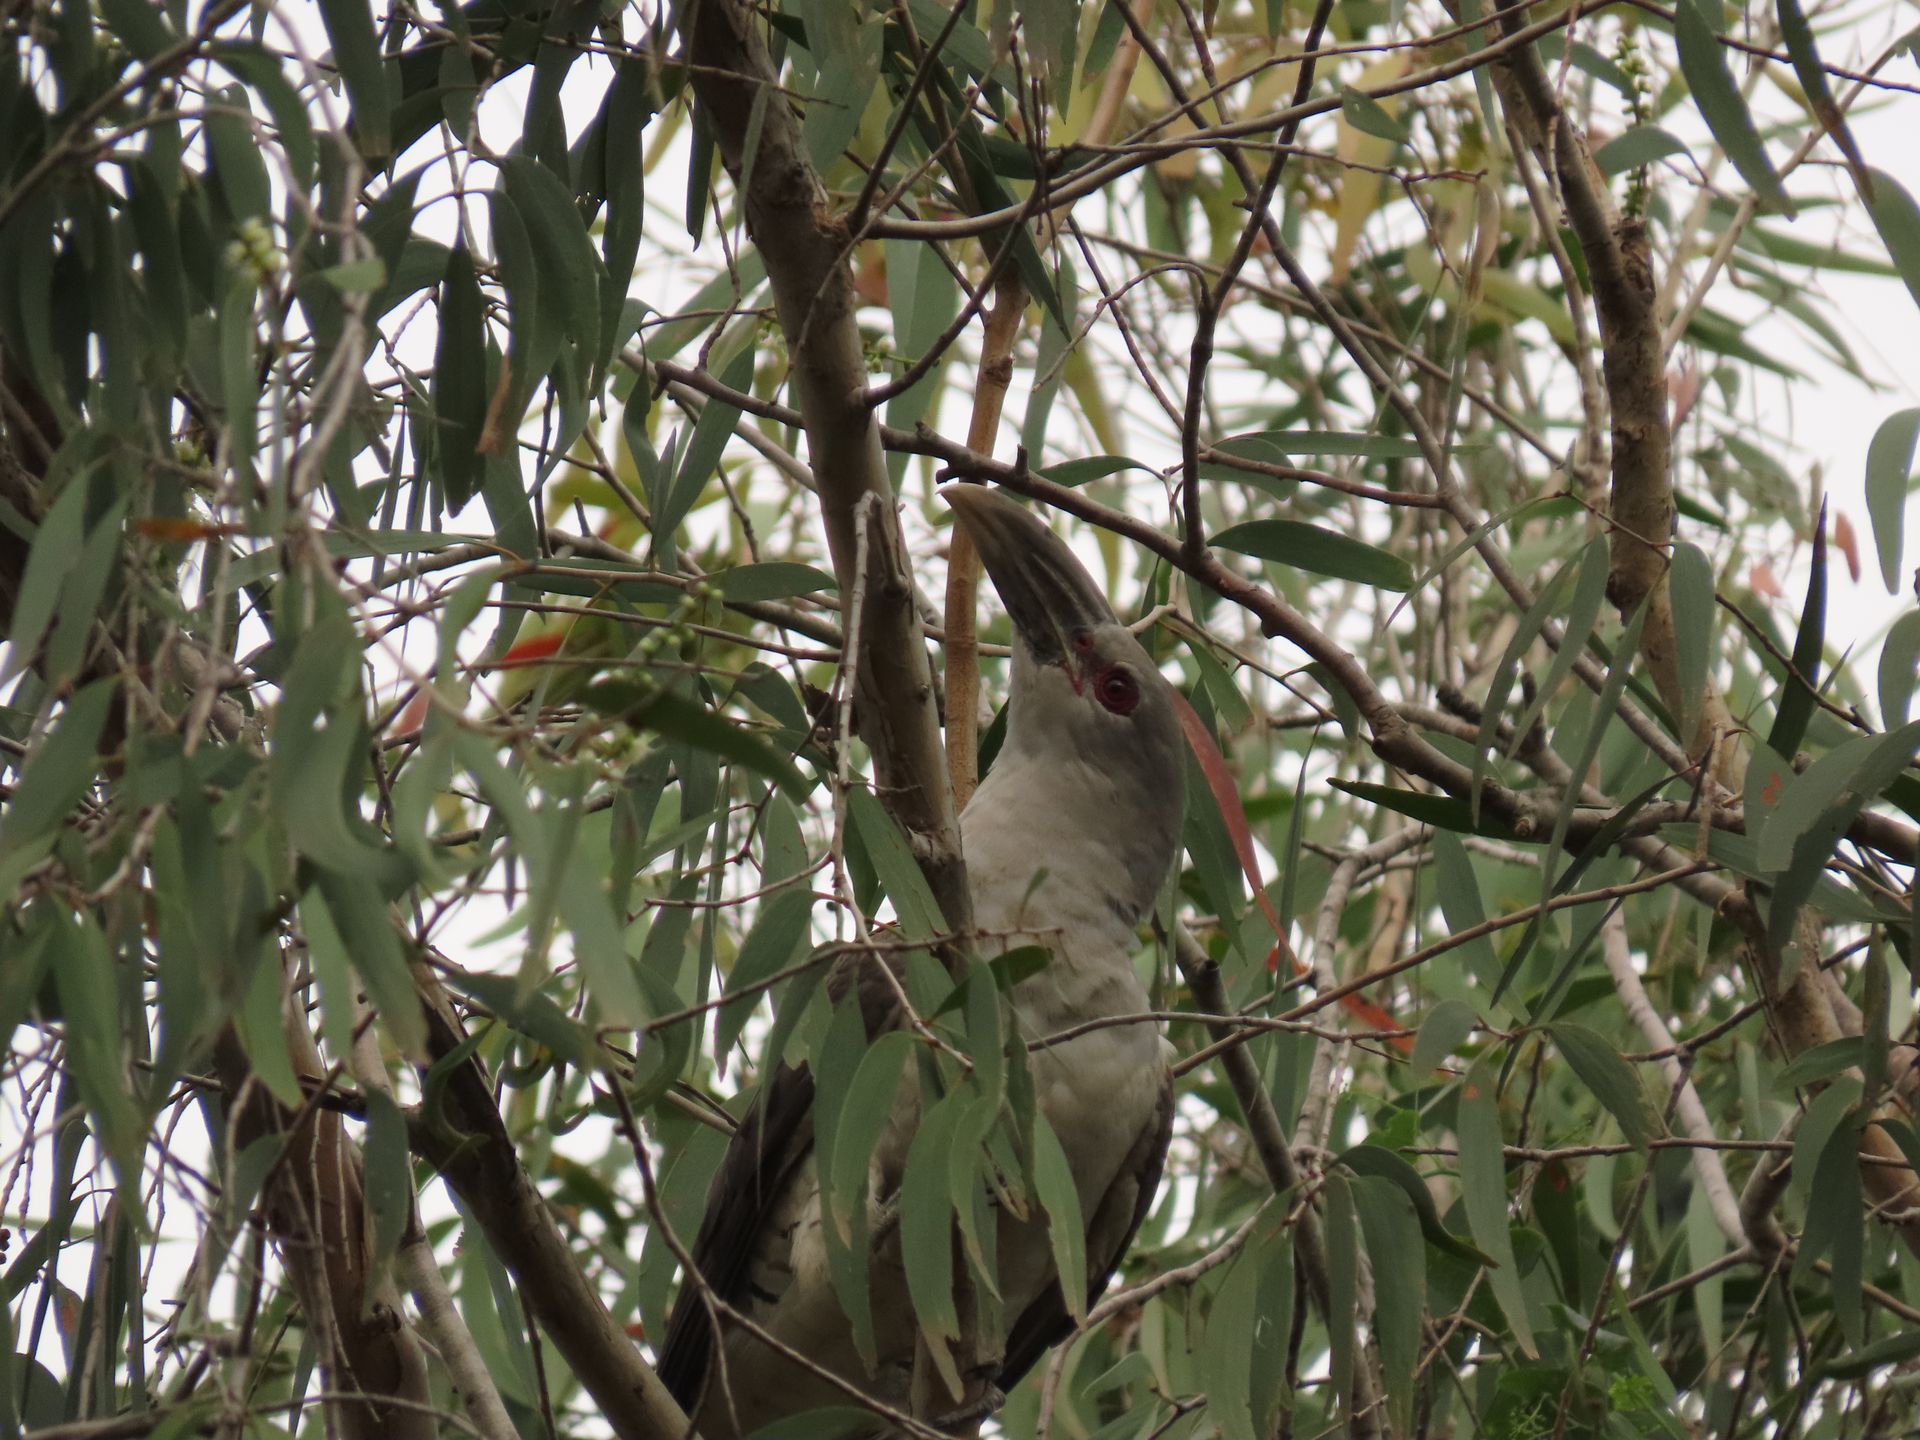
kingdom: Animalia
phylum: Chordata
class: Aves
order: Cuculiformes
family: Cuculidae
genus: Scythrops
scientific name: Scythrops novaehollandiae
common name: Channel-billed cuckoo
